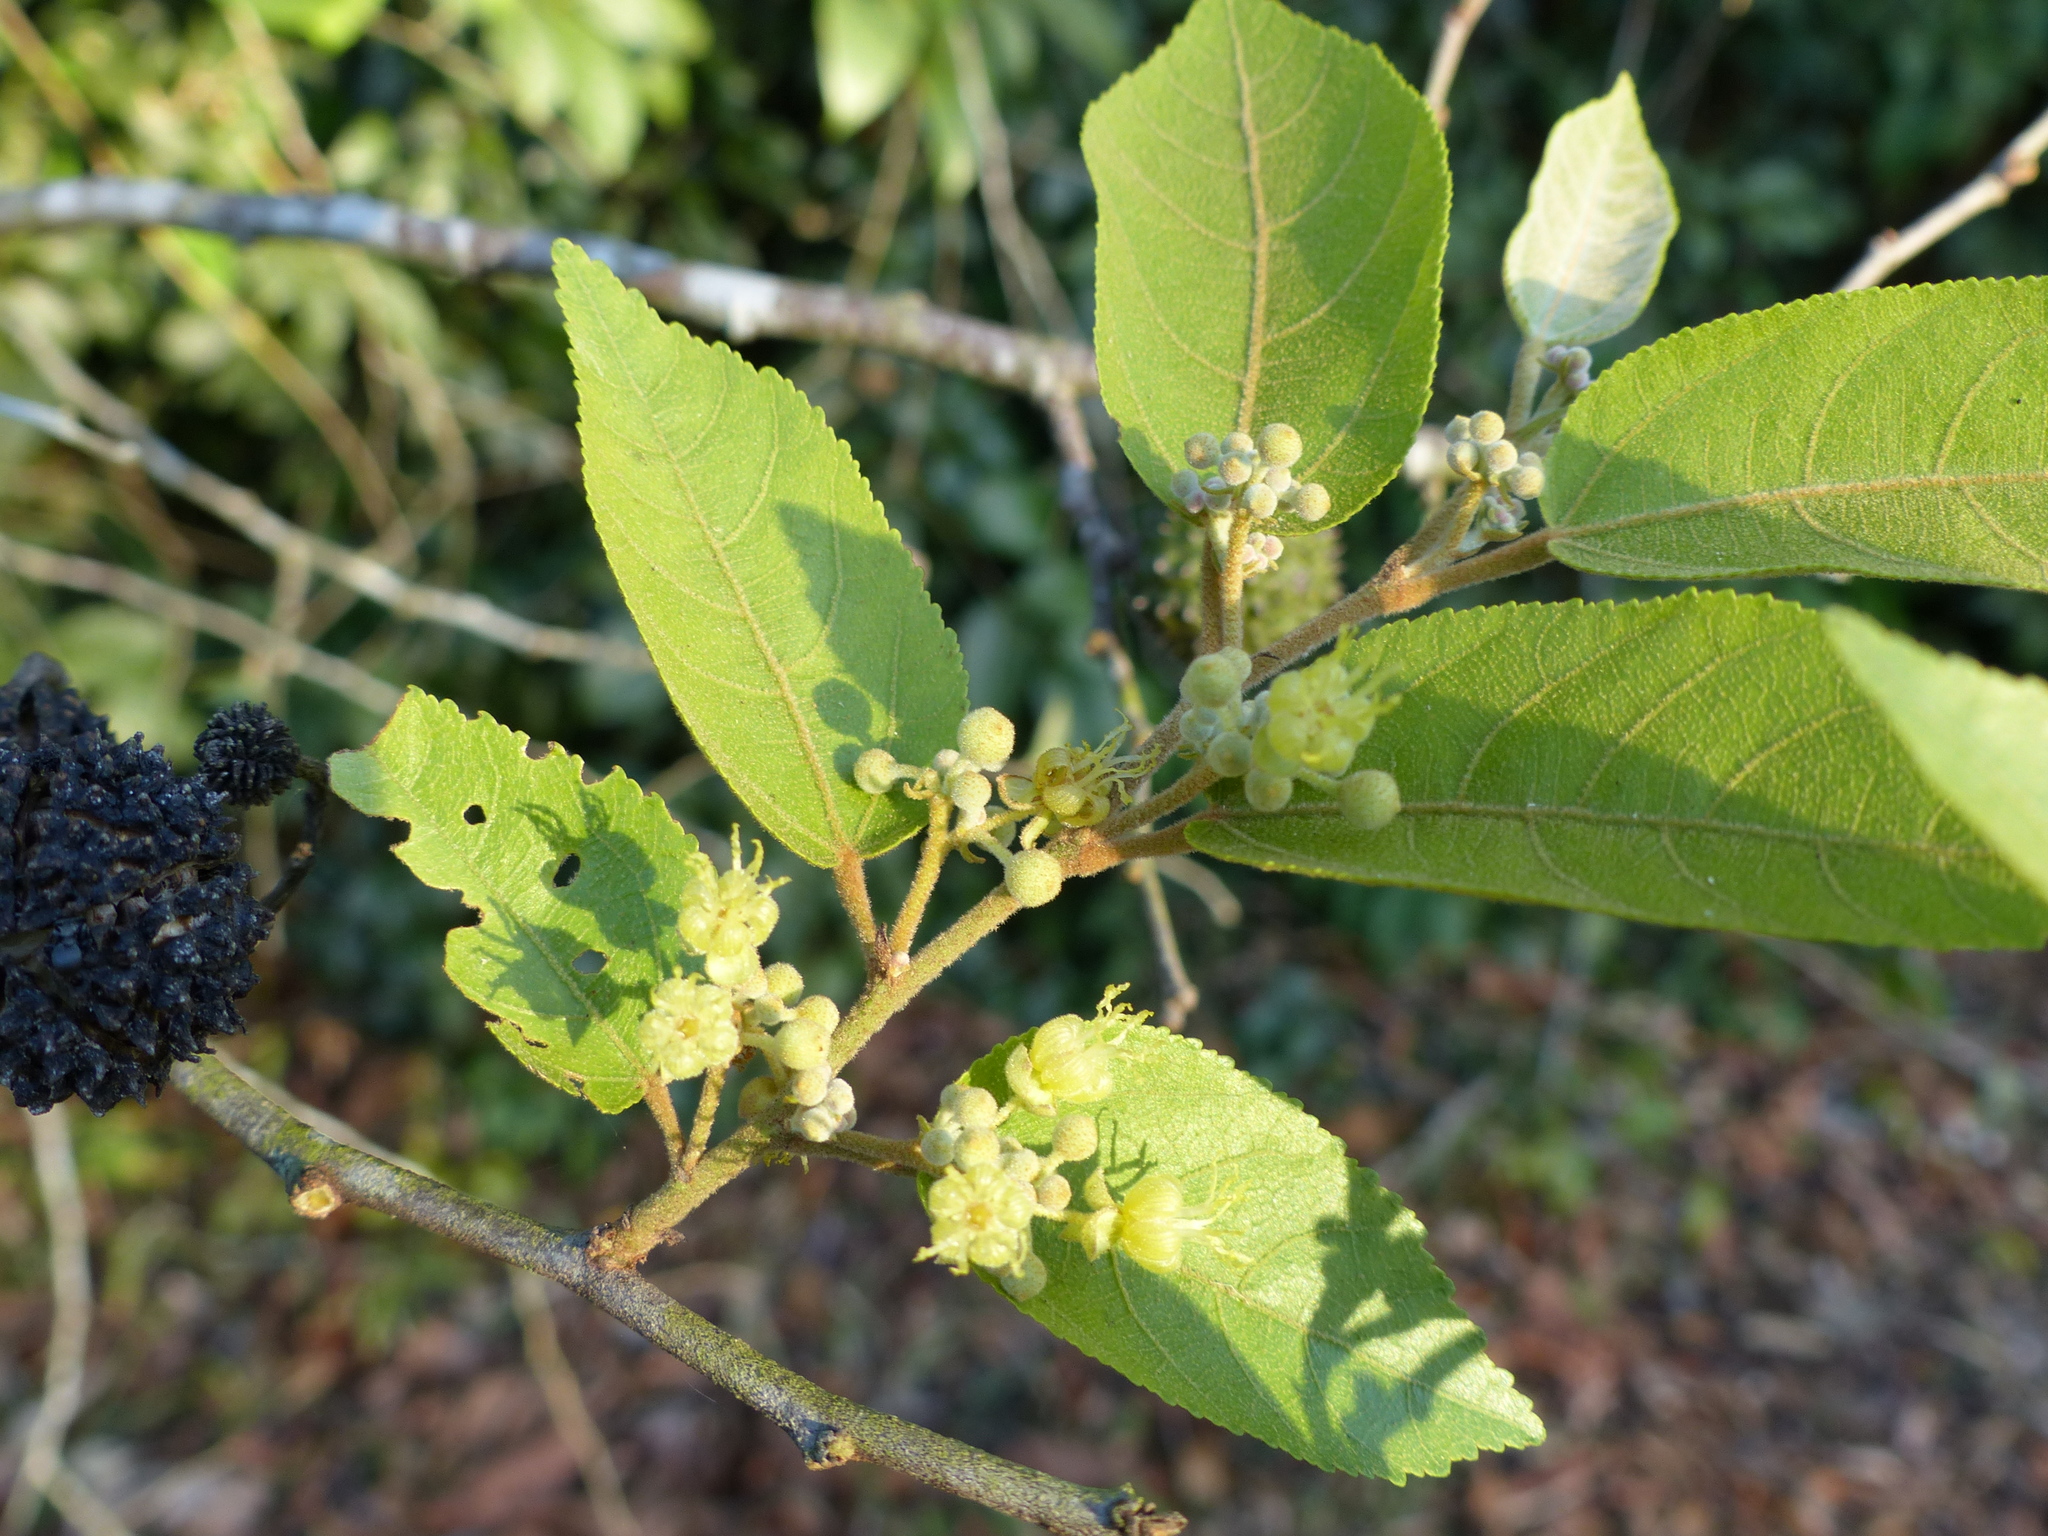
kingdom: Plantae
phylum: Tracheophyta
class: Magnoliopsida
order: Malvales
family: Malvaceae
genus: Guazuma
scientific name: Guazuma ulmifolia
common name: Bastard-cedar
